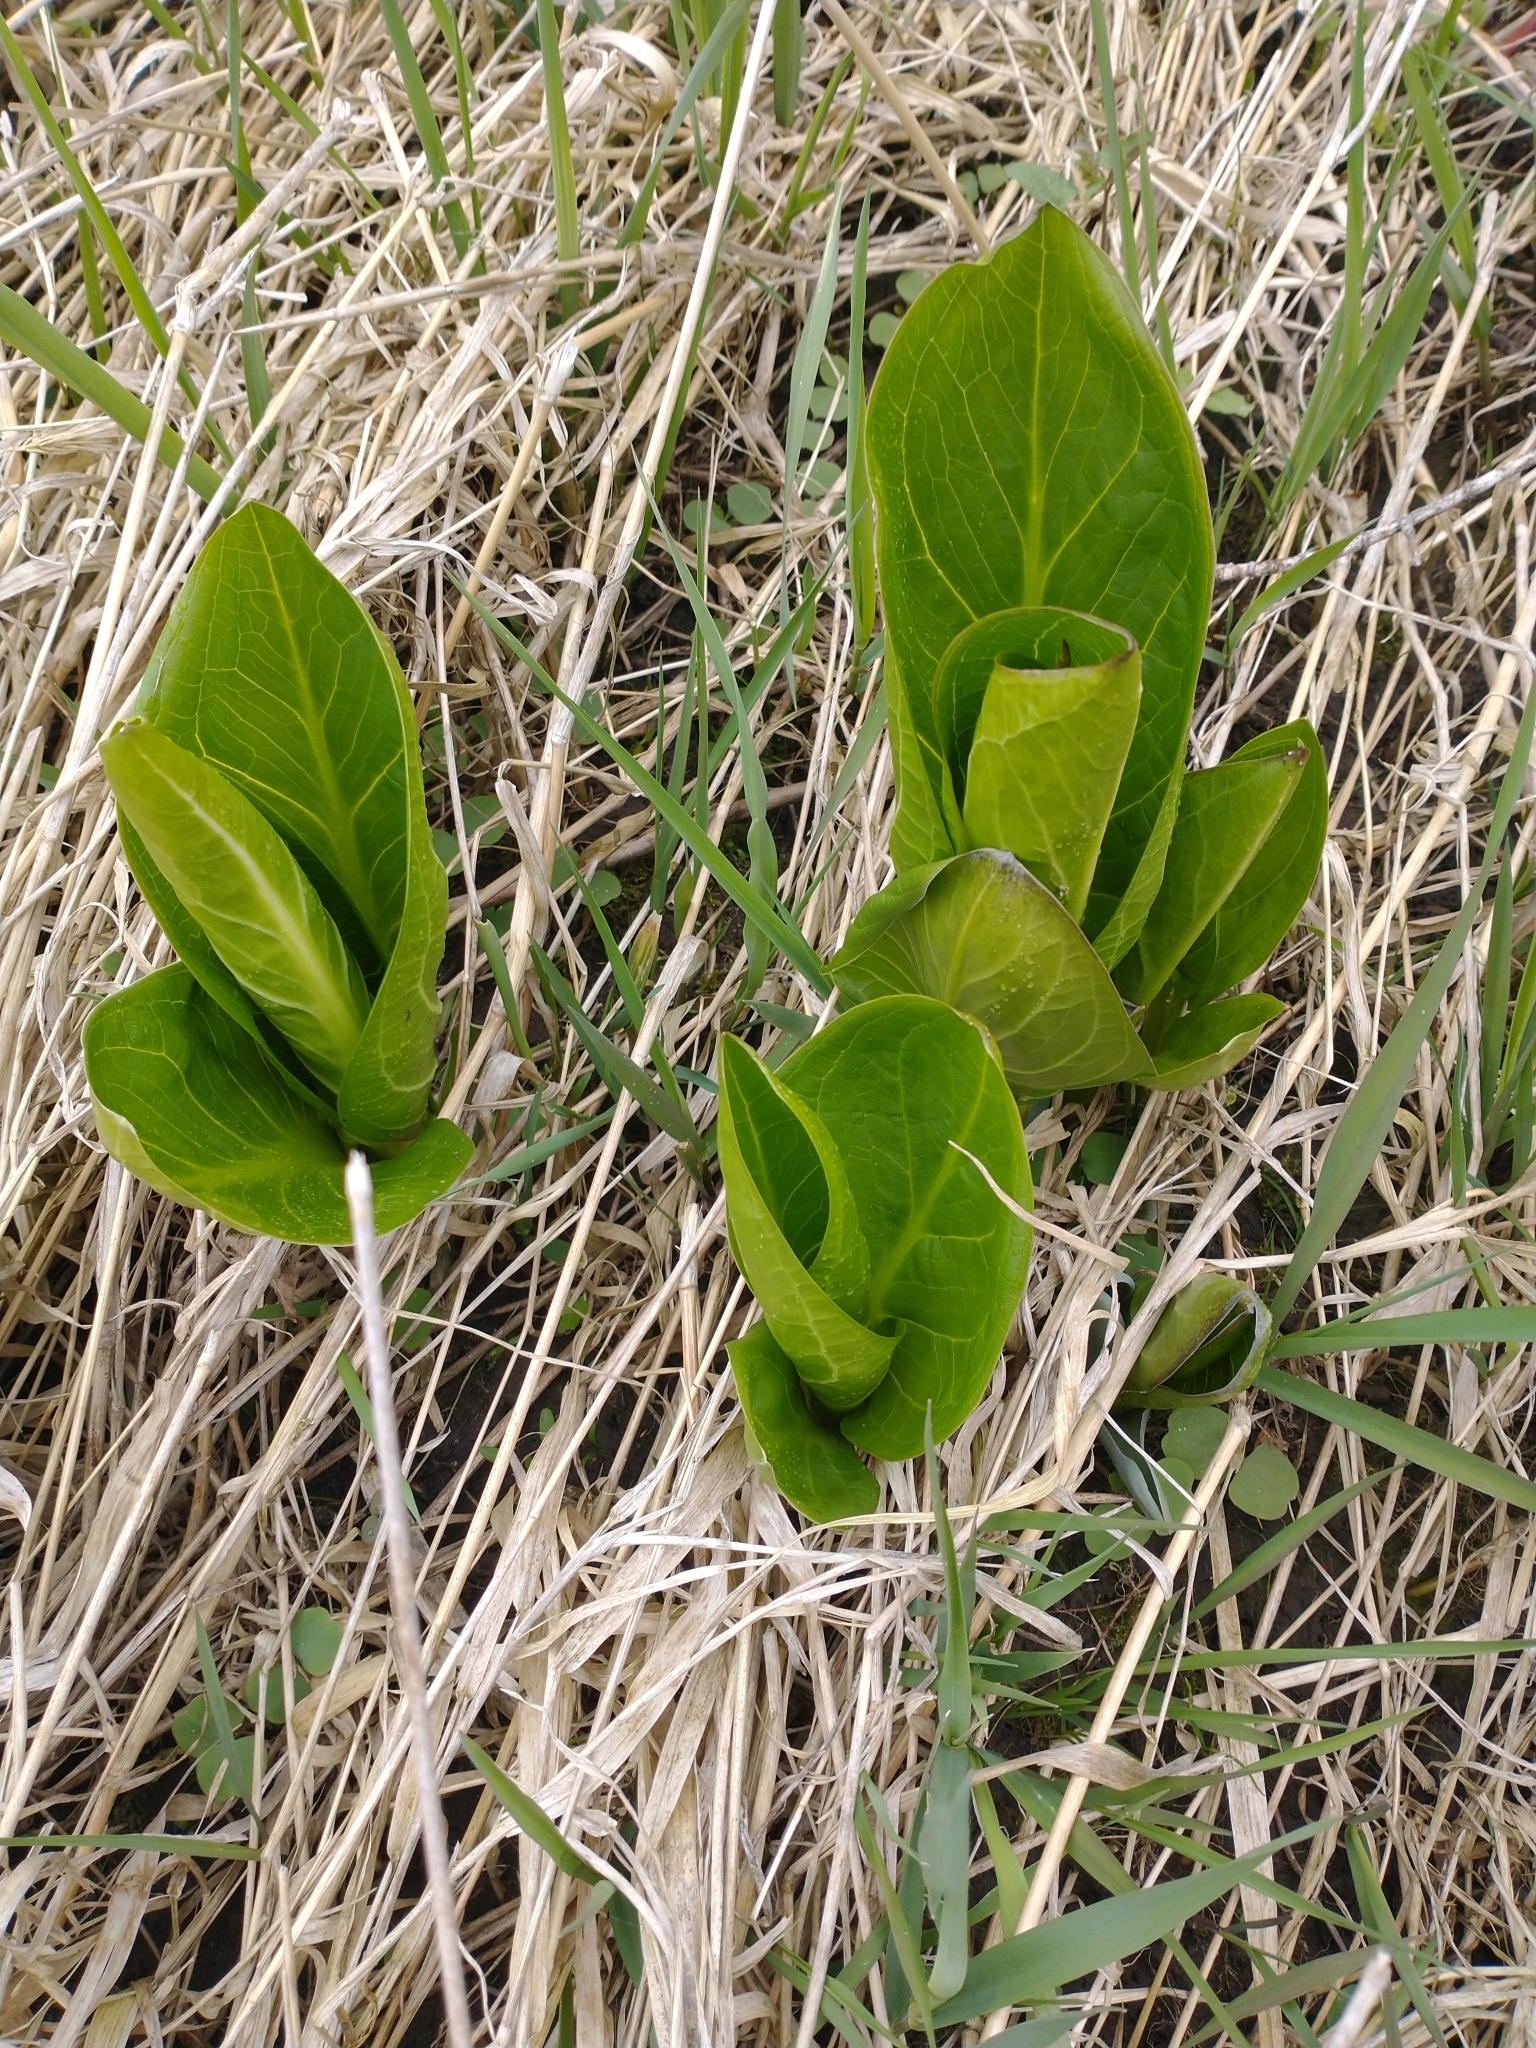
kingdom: Plantae
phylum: Tracheophyta
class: Liliopsida
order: Alismatales
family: Araceae
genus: Symplocarpus
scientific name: Symplocarpus foetidus
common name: Eastern skunk cabbage
